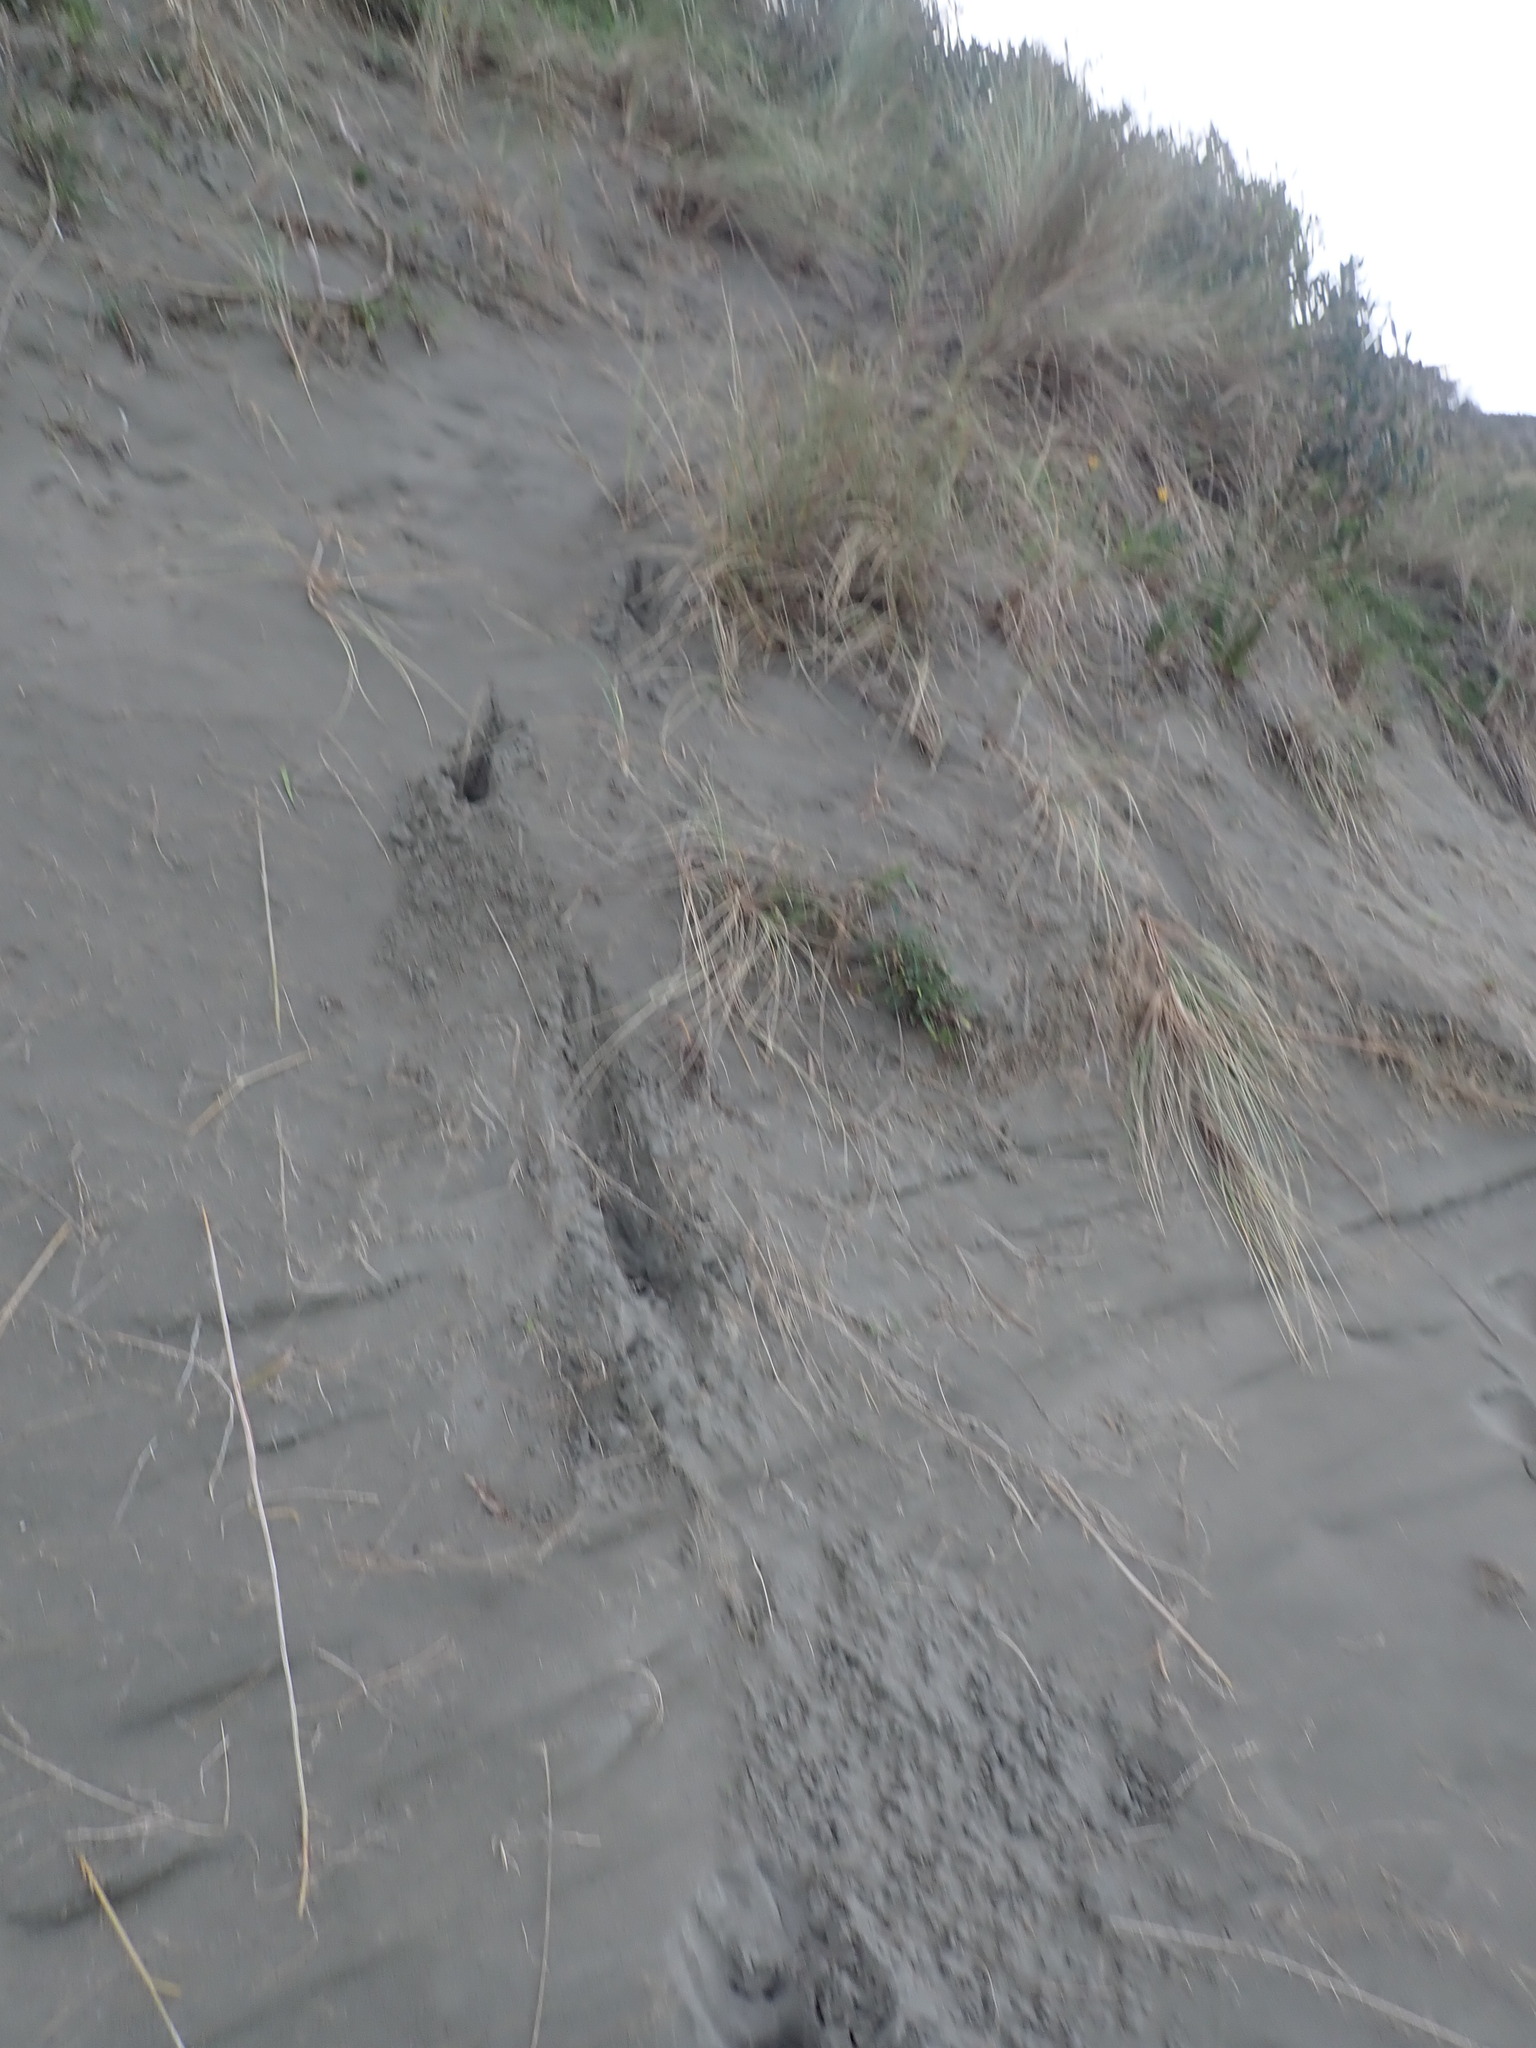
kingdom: Animalia
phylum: Chordata
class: Mammalia
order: Artiodactyla
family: Cervidae
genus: Rusa
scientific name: Rusa unicolor
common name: Sambar
